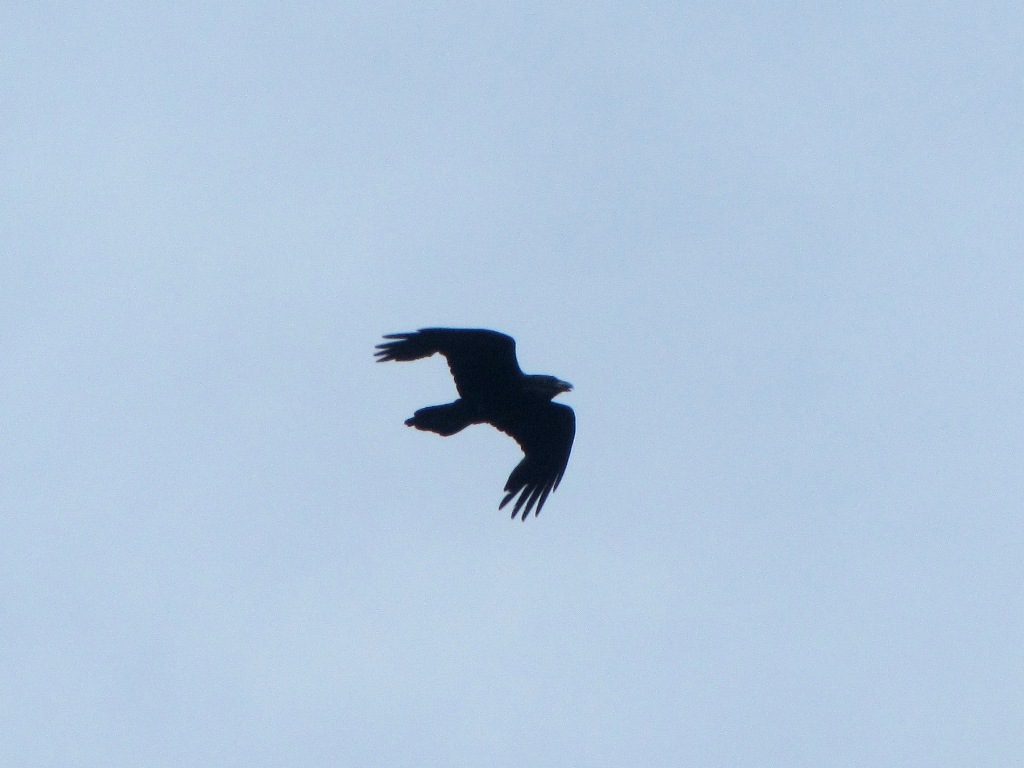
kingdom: Animalia
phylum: Chordata
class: Aves
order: Passeriformes
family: Corvidae
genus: Corvus
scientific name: Corvus corax
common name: Common raven
